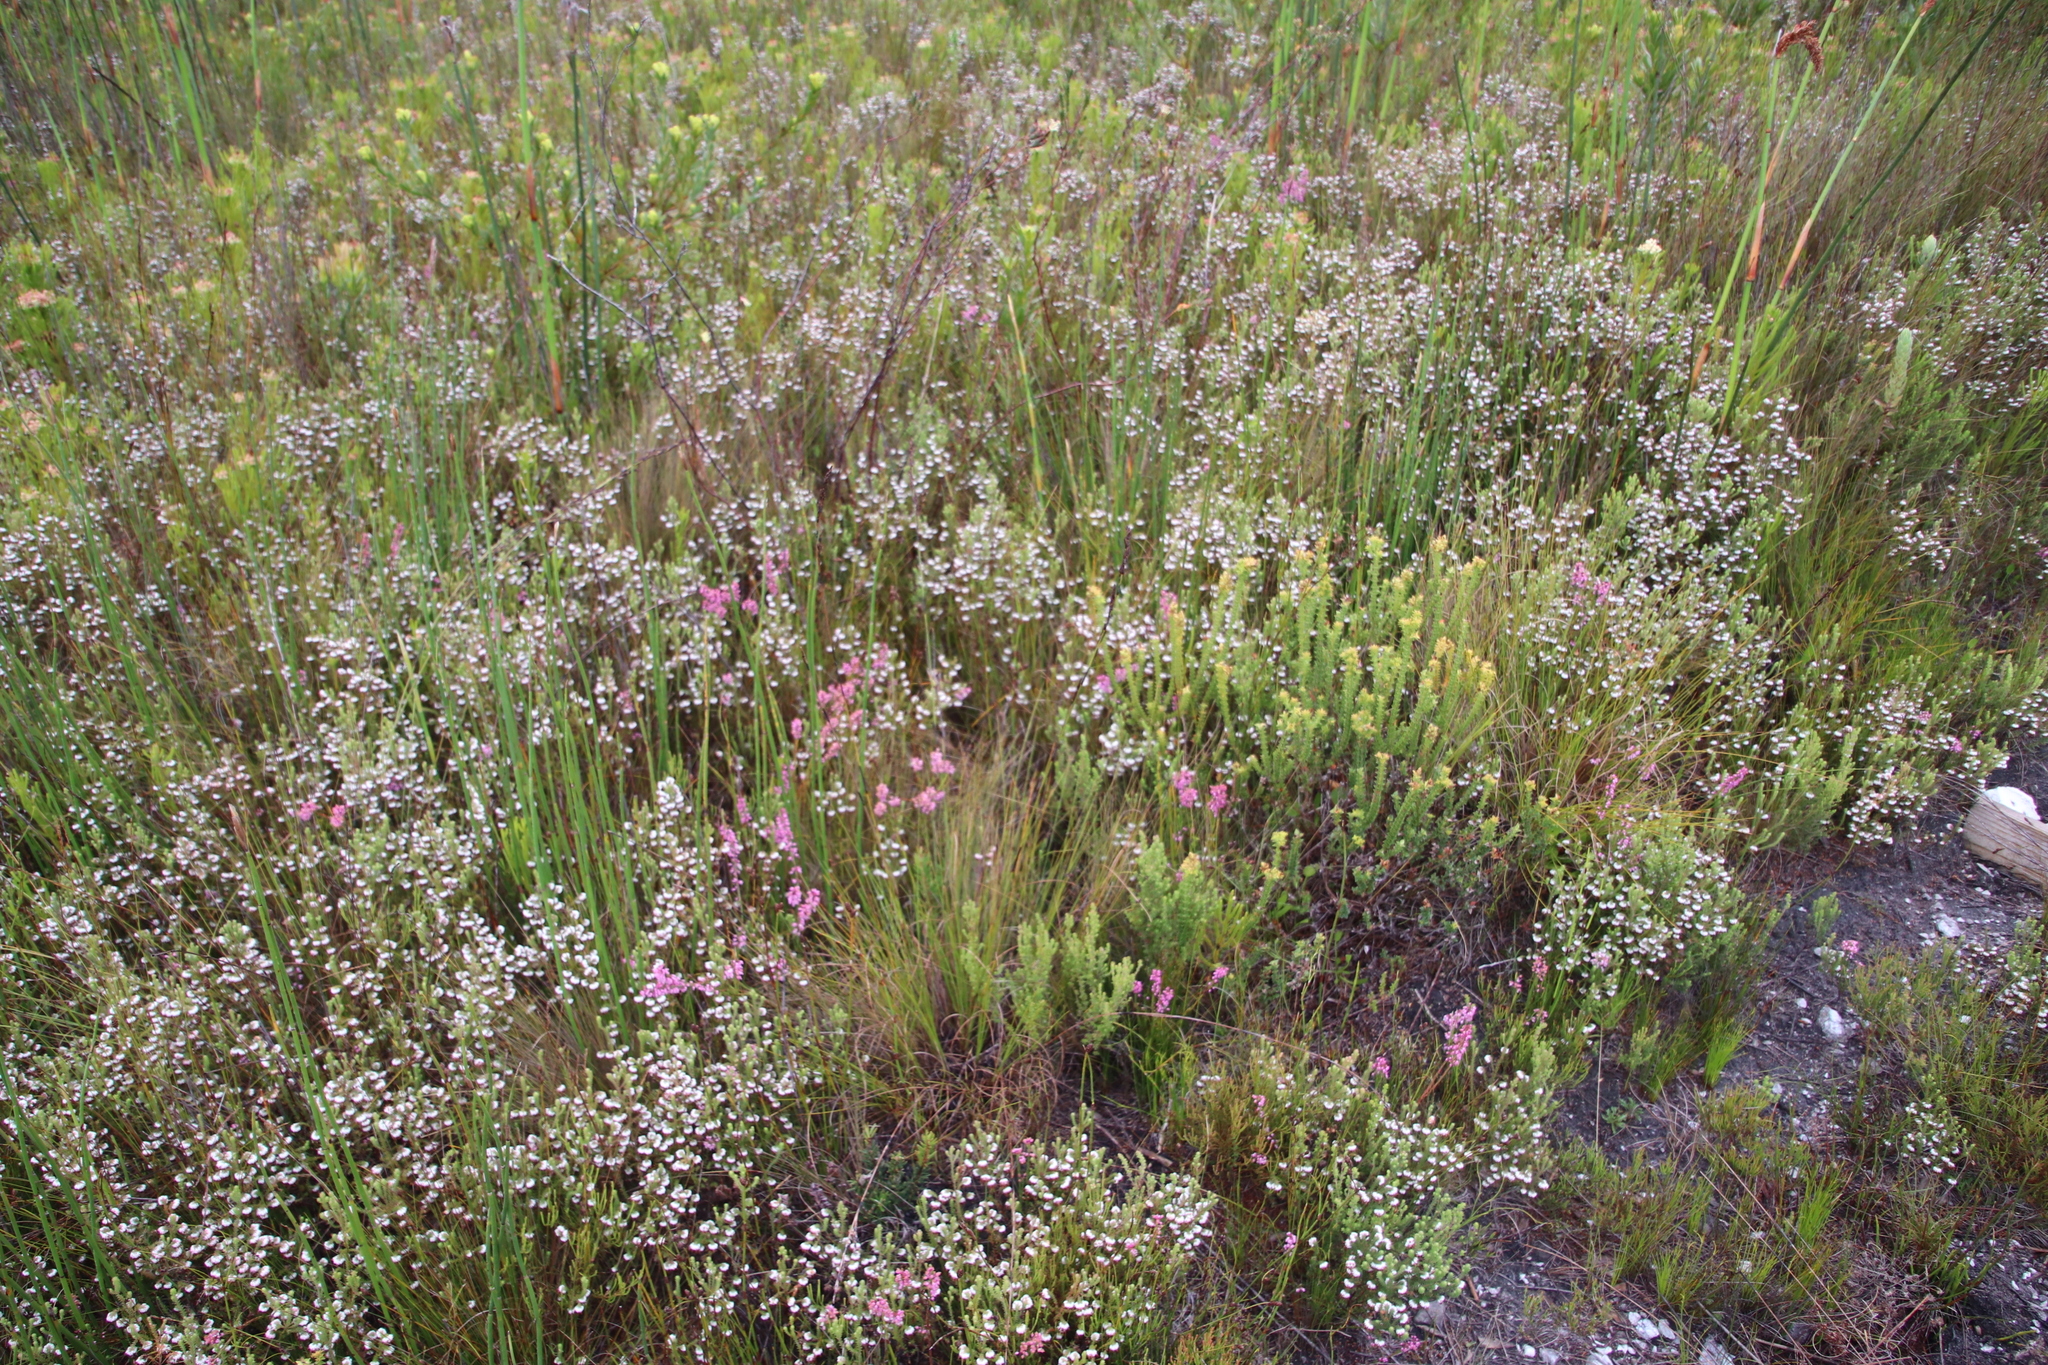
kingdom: Plantae
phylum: Tracheophyta
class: Magnoliopsida
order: Ericales
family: Ericaceae
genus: Erica
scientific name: Erica corifolia
